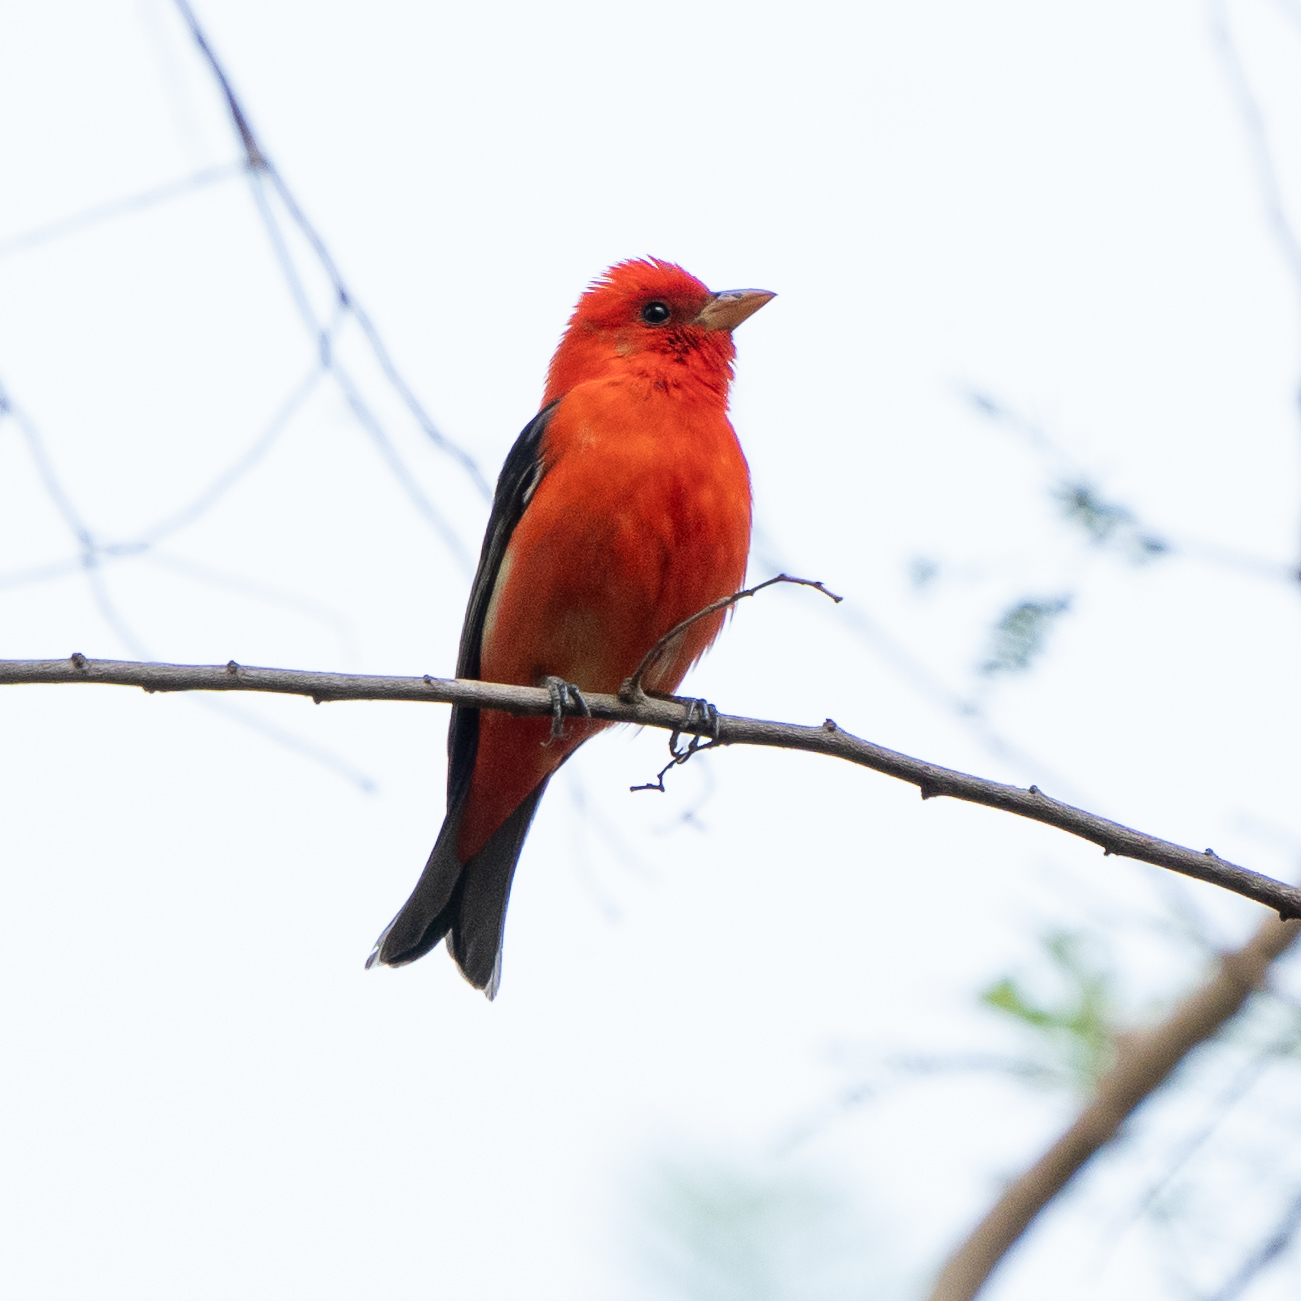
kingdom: Animalia
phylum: Chordata
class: Aves
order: Passeriformes
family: Cardinalidae
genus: Piranga
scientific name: Piranga olivacea
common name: Scarlet tanager
